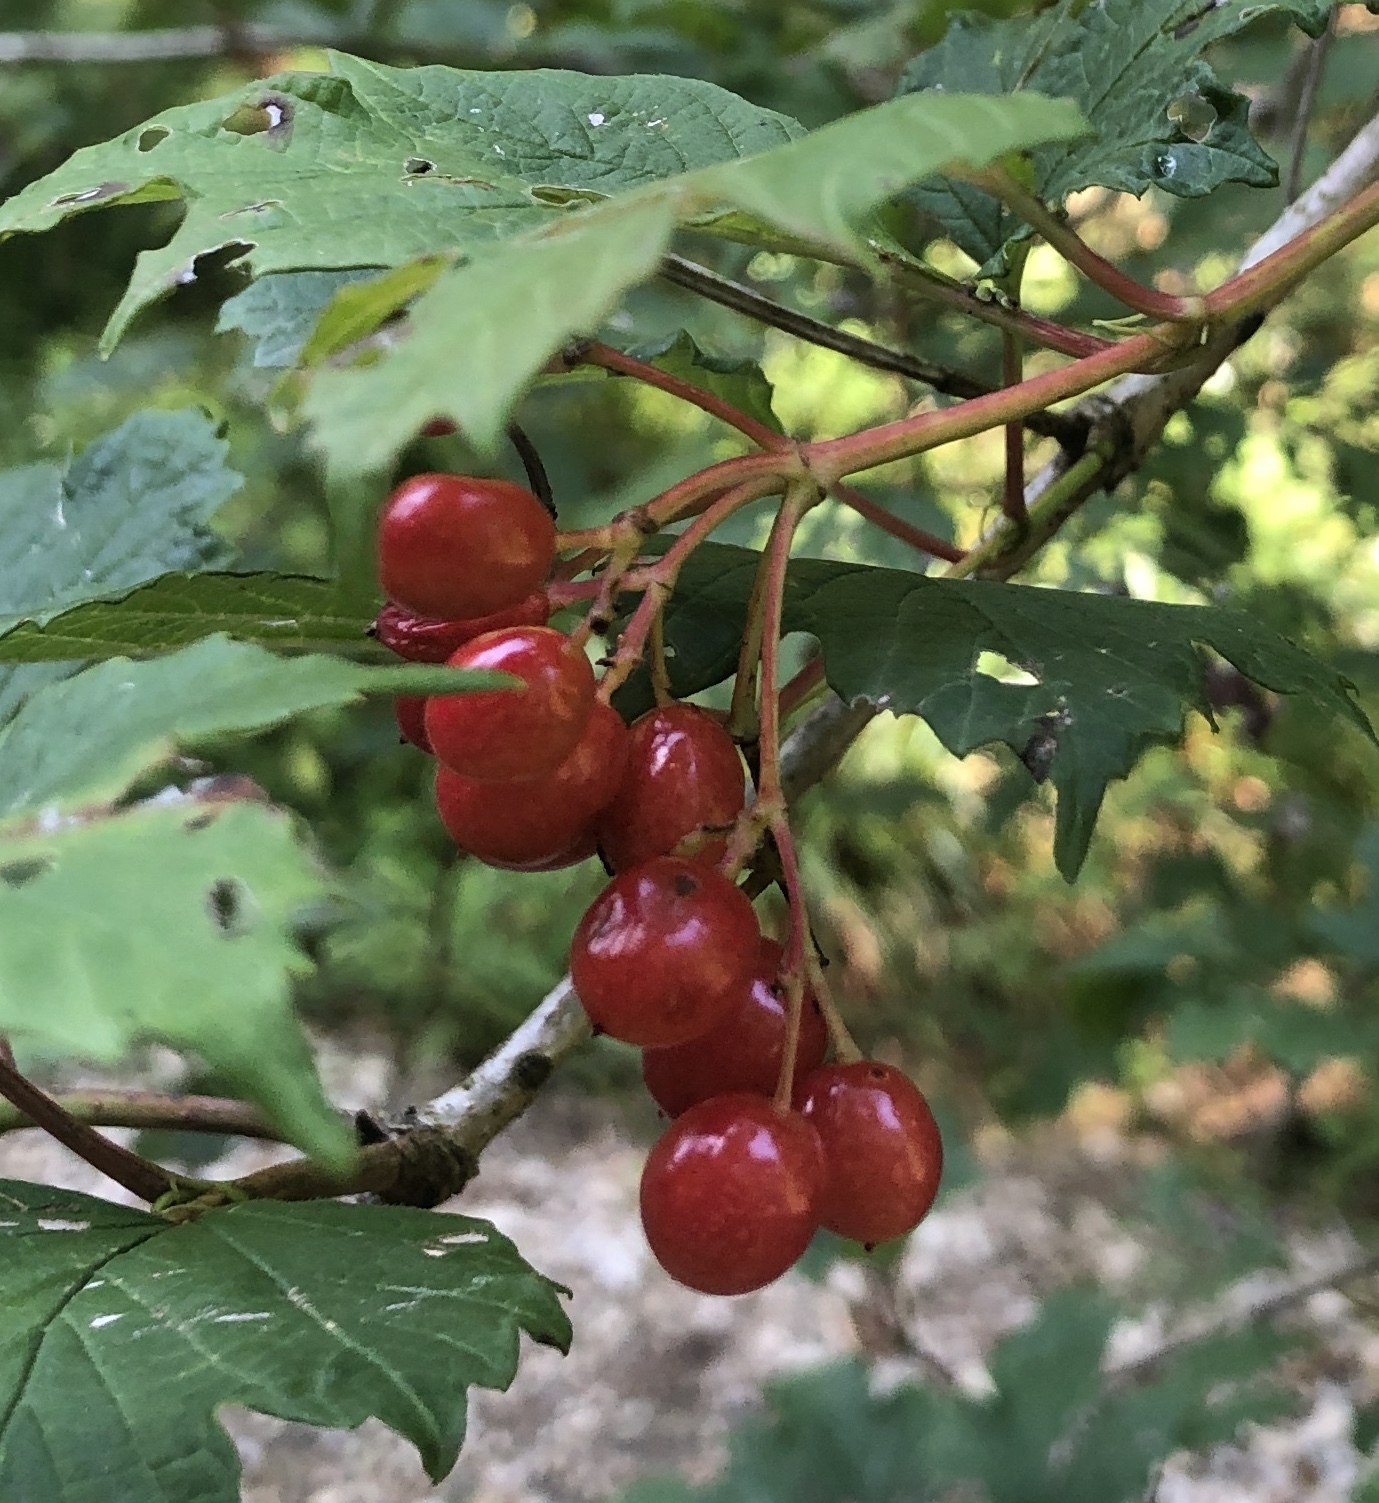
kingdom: Plantae
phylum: Tracheophyta
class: Magnoliopsida
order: Dipsacales
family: Viburnaceae
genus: Viburnum
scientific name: Viburnum opulus
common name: Guelder-rose
